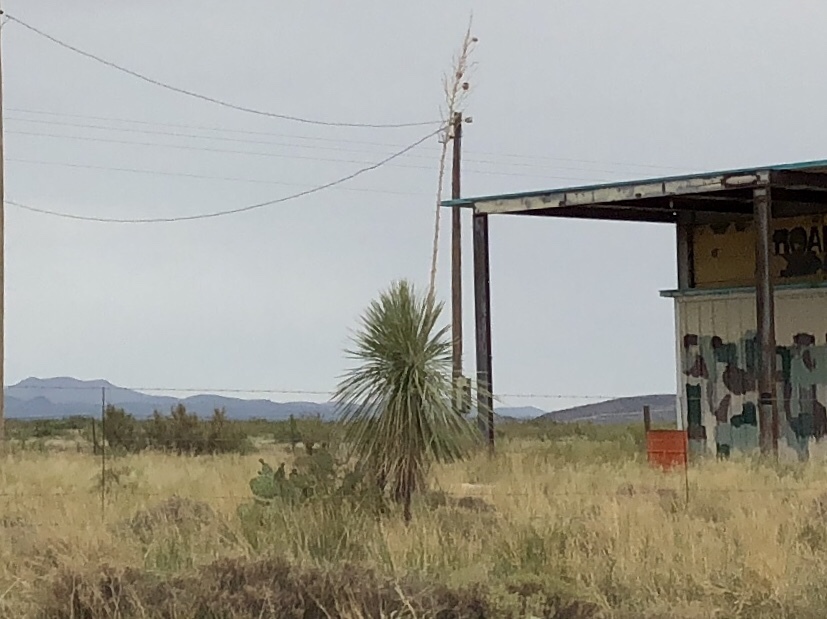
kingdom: Plantae
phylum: Tracheophyta
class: Liliopsida
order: Asparagales
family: Asparagaceae
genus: Yucca
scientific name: Yucca elata
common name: Palmella
